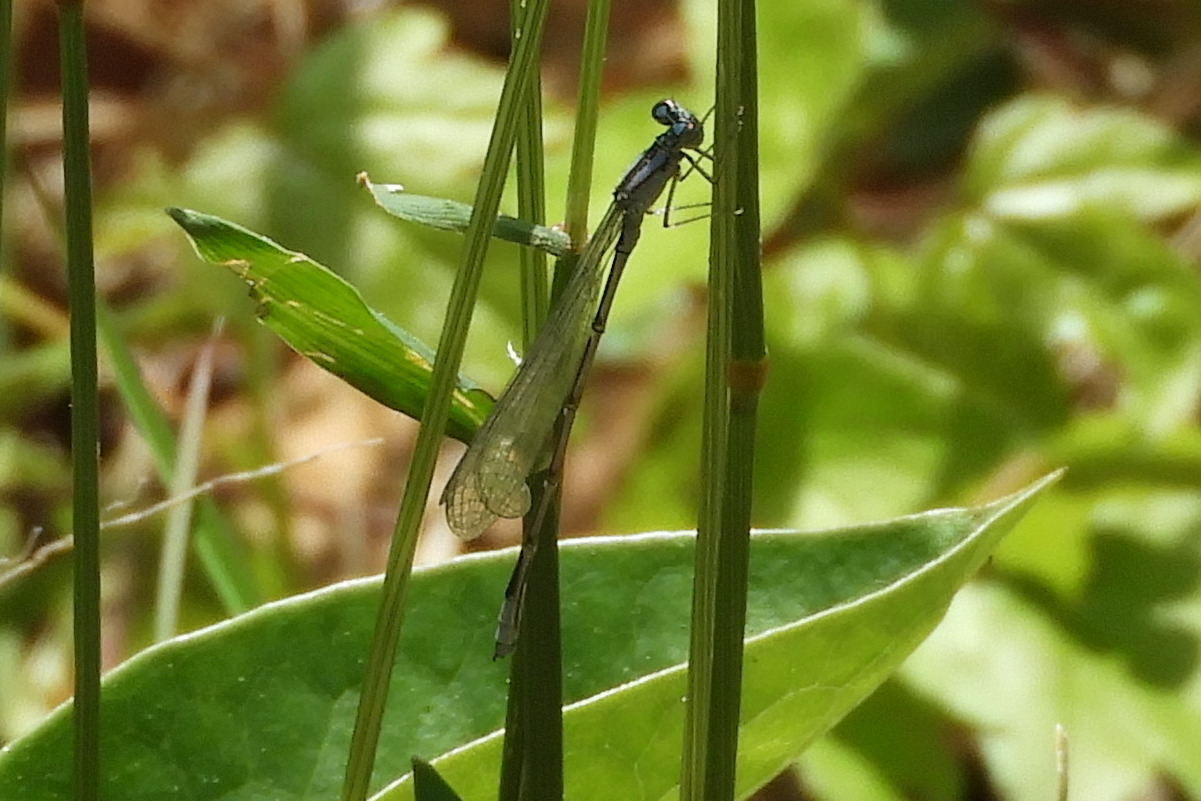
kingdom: Animalia
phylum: Arthropoda
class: Insecta
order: Odonata
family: Coenagrionidae
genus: Enallagma
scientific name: Enallagma traviatum
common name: Slender bluet
